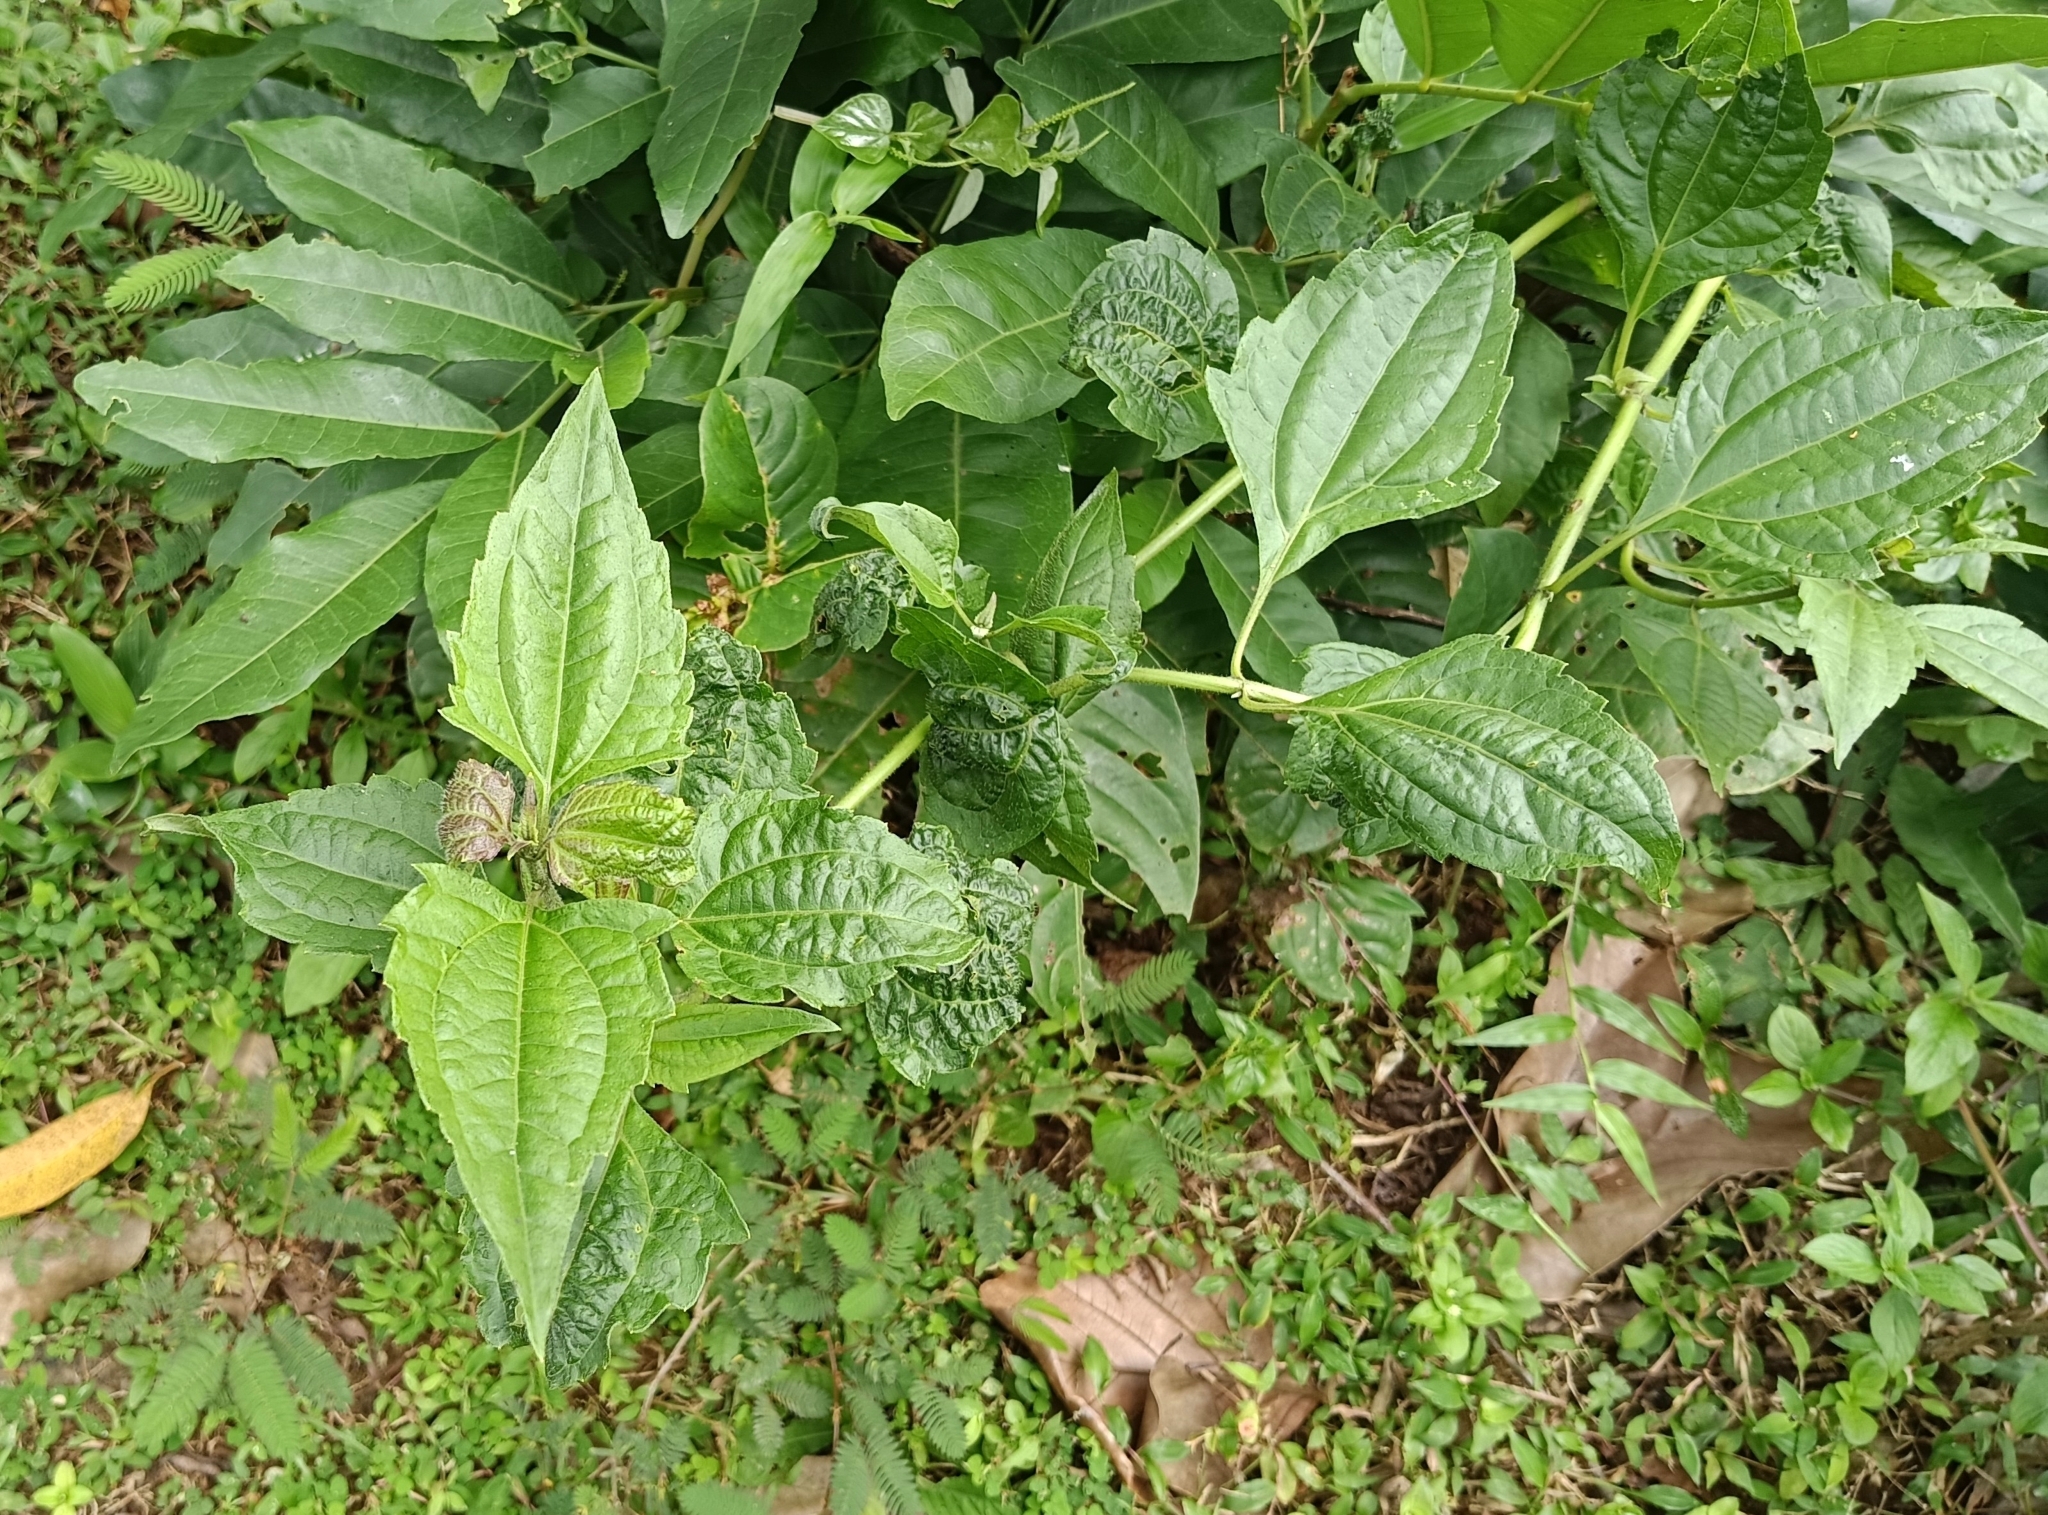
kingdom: Plantae
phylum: Tracheophyta
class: Magnoliopsida
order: Asterales
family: Asteraceae
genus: Chromolaena
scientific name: Chromolaena odorata
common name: Siamweed
